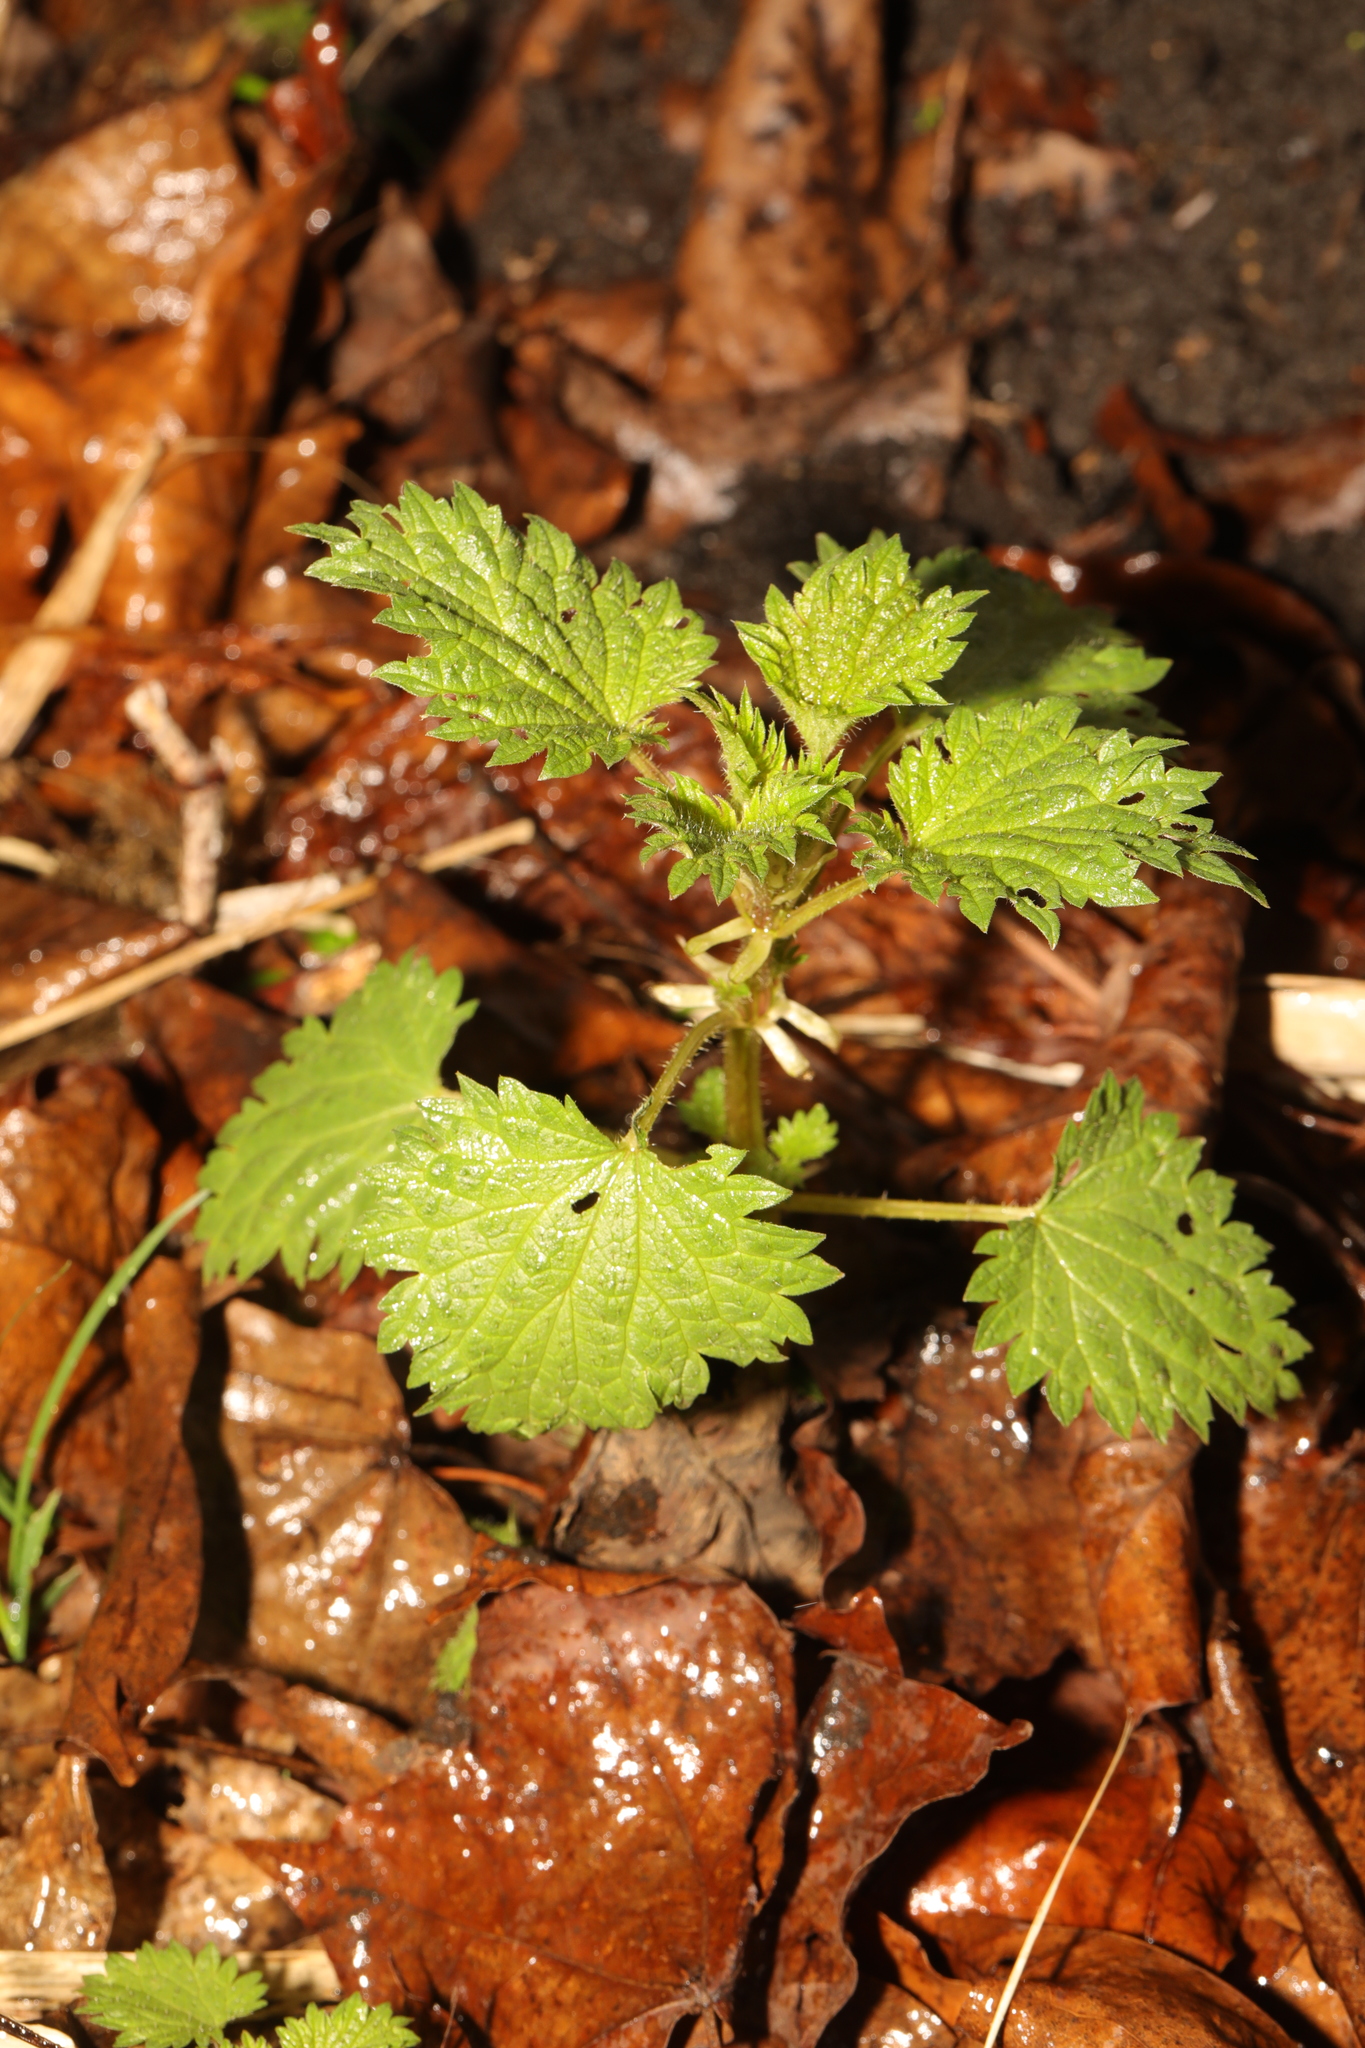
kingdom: Plantae
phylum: Tracheophyta
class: Magnoliopsida
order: Rosales
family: Urticaceae
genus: Urtica
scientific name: Urtica dioica
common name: Common nettle
